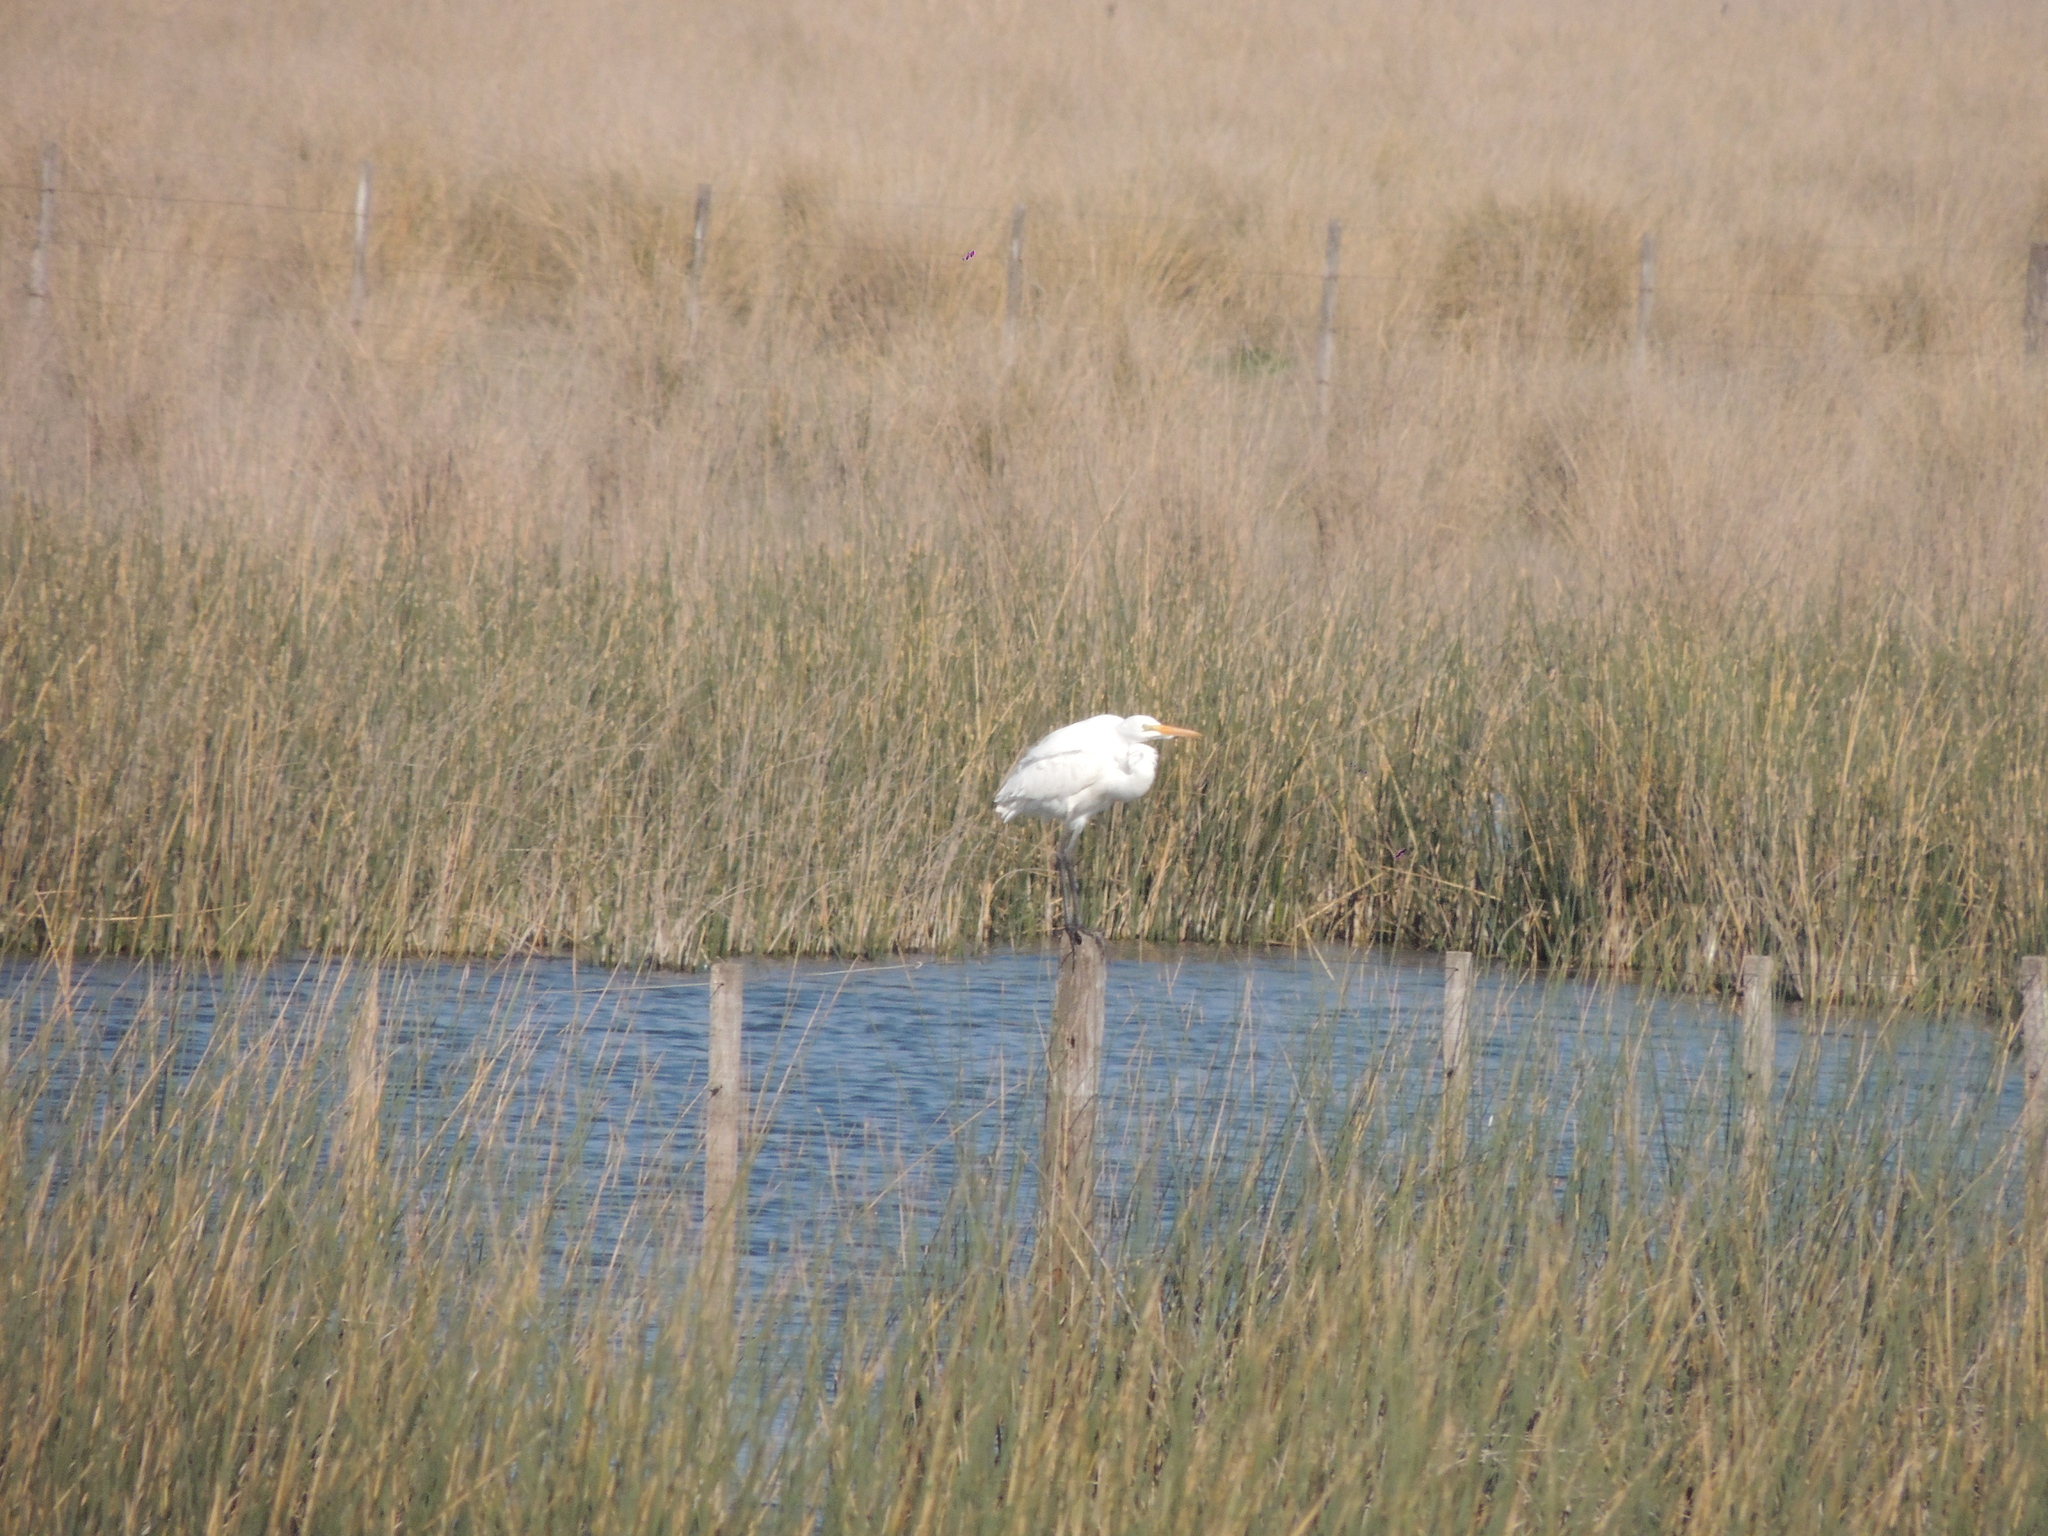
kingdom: Animalia
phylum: Chordata
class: Aves
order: Pelecaniformes
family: Ardeidae
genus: Ardea
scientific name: Ardea alba
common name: Great egret
